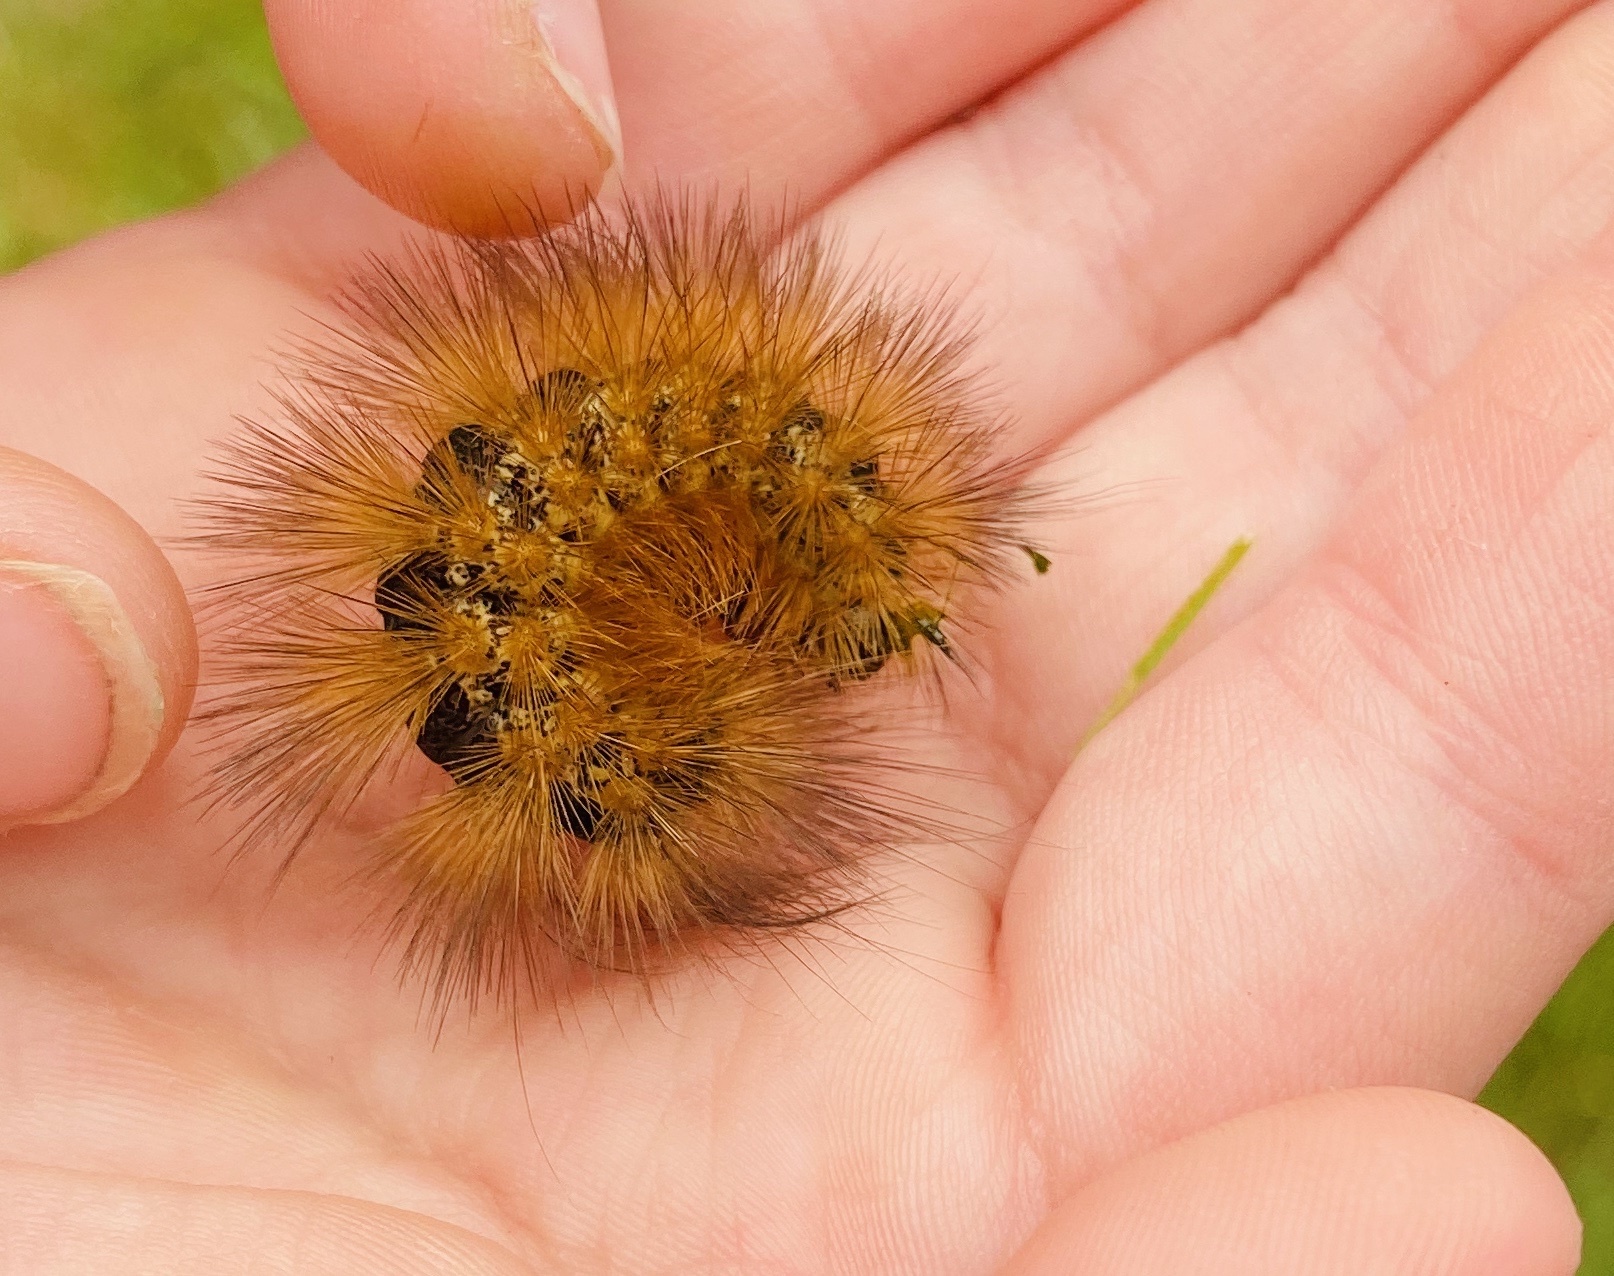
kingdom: Animalia
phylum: Arthropoda
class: Insecta
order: Lepidoptera
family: Erebidae
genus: Estigmene
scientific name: Estigmene acrea
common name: Salt marsh moth
